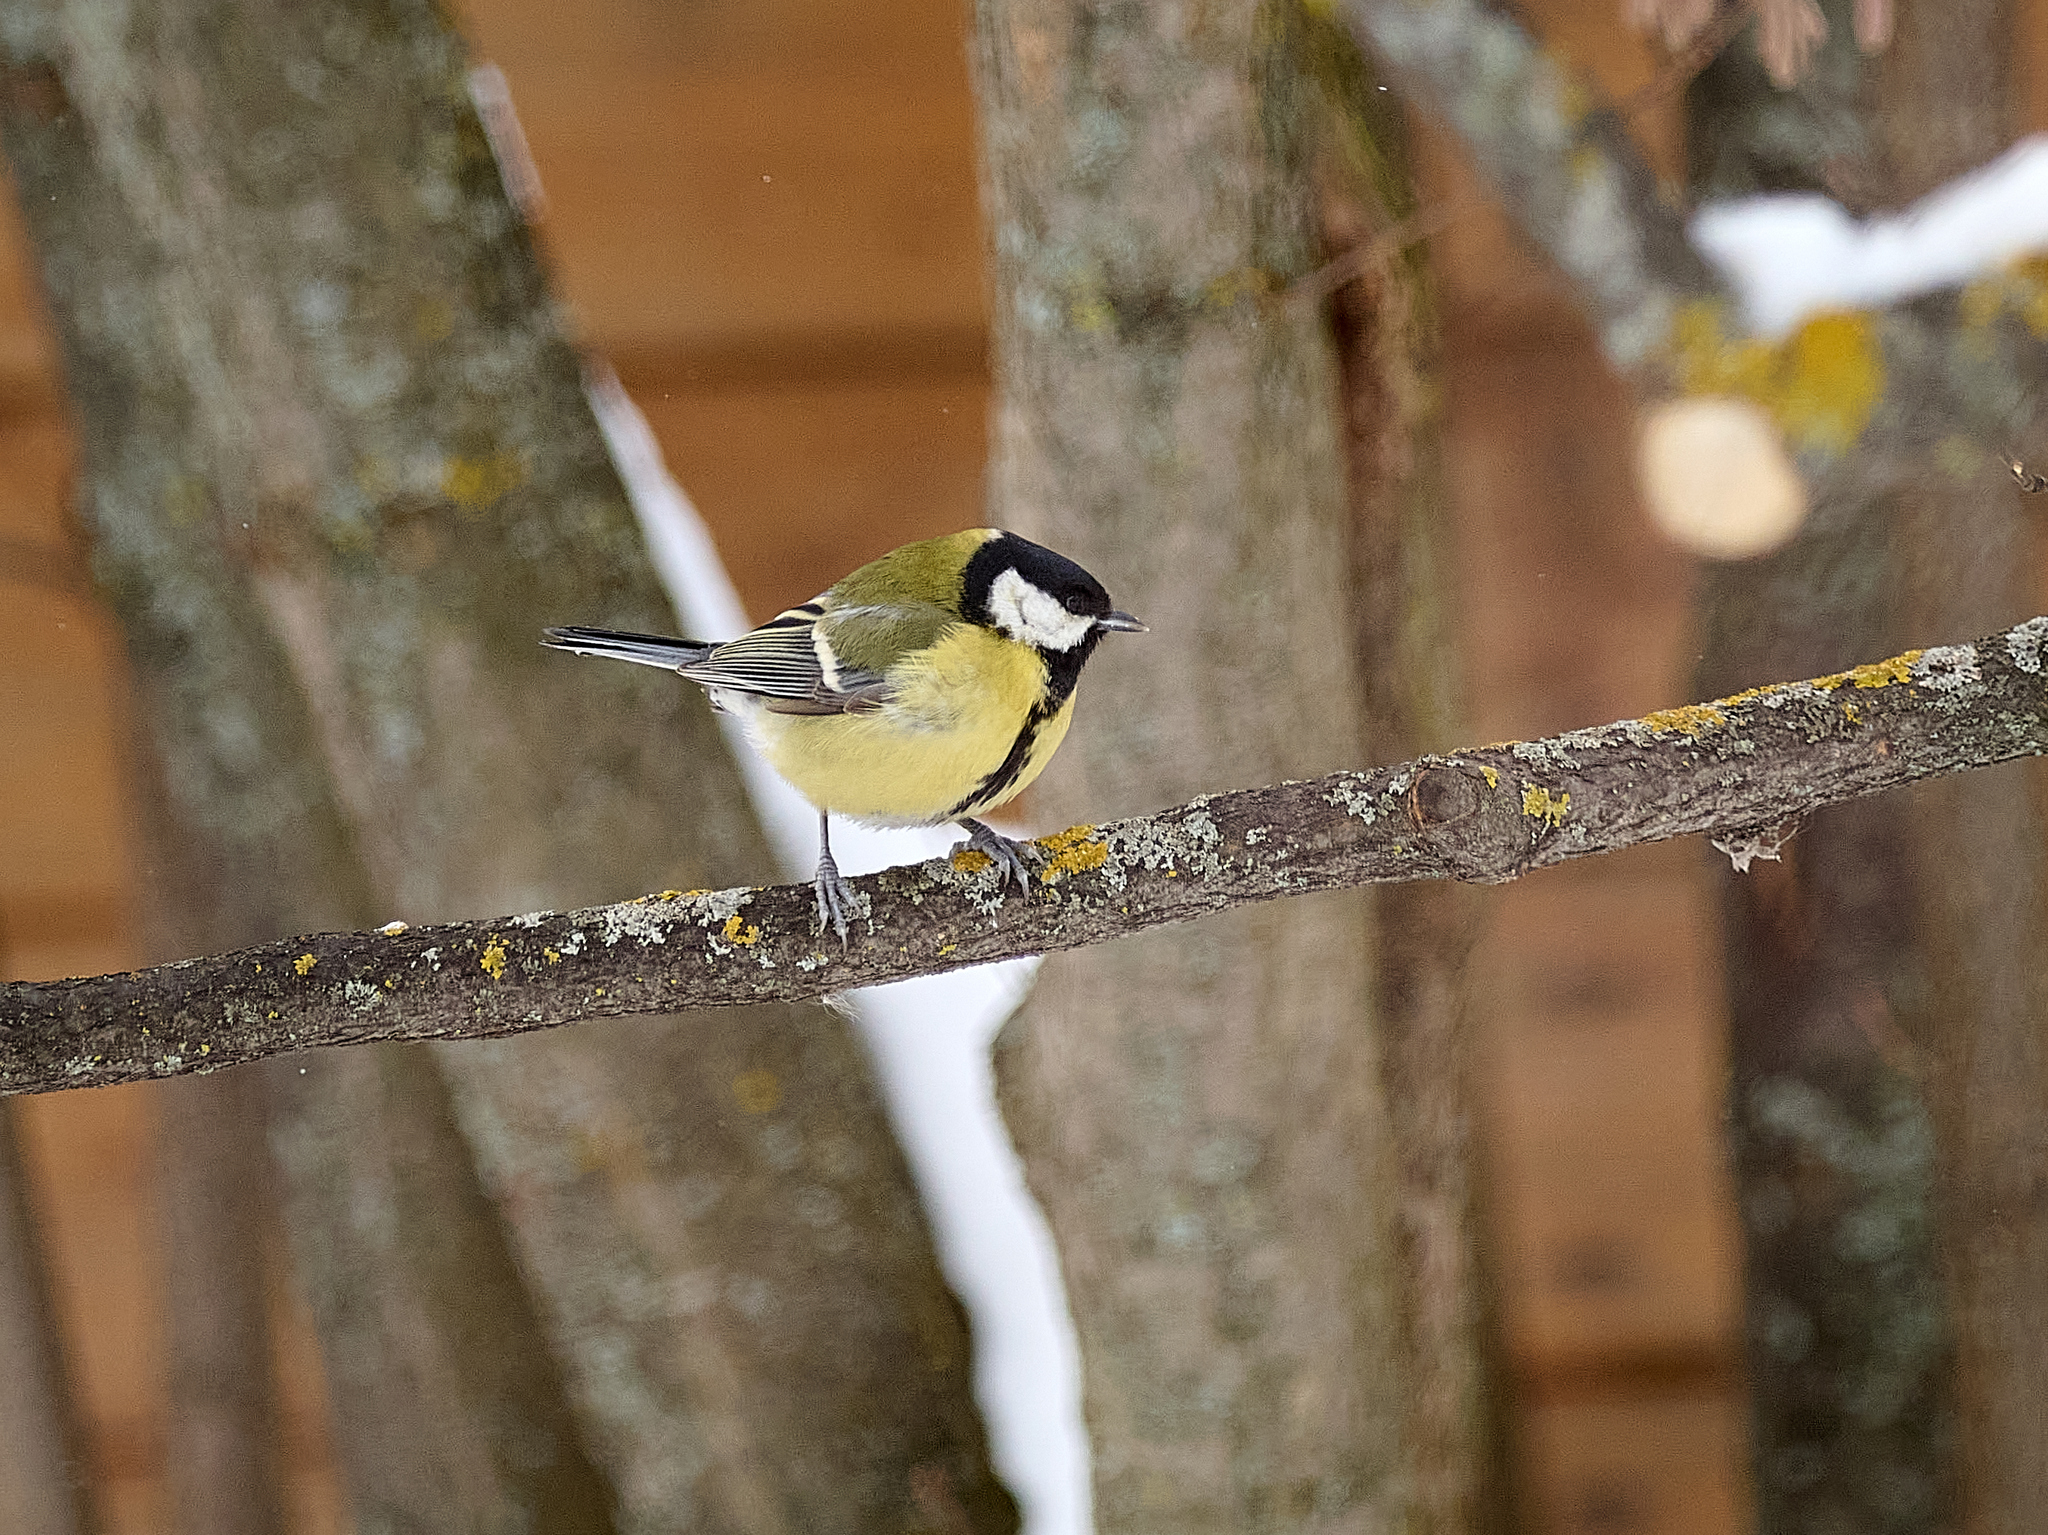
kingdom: Animalia
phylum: Chordata
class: Aves
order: Passeriformes
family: Paridae
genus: Parus
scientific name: Parus major
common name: Great tit
